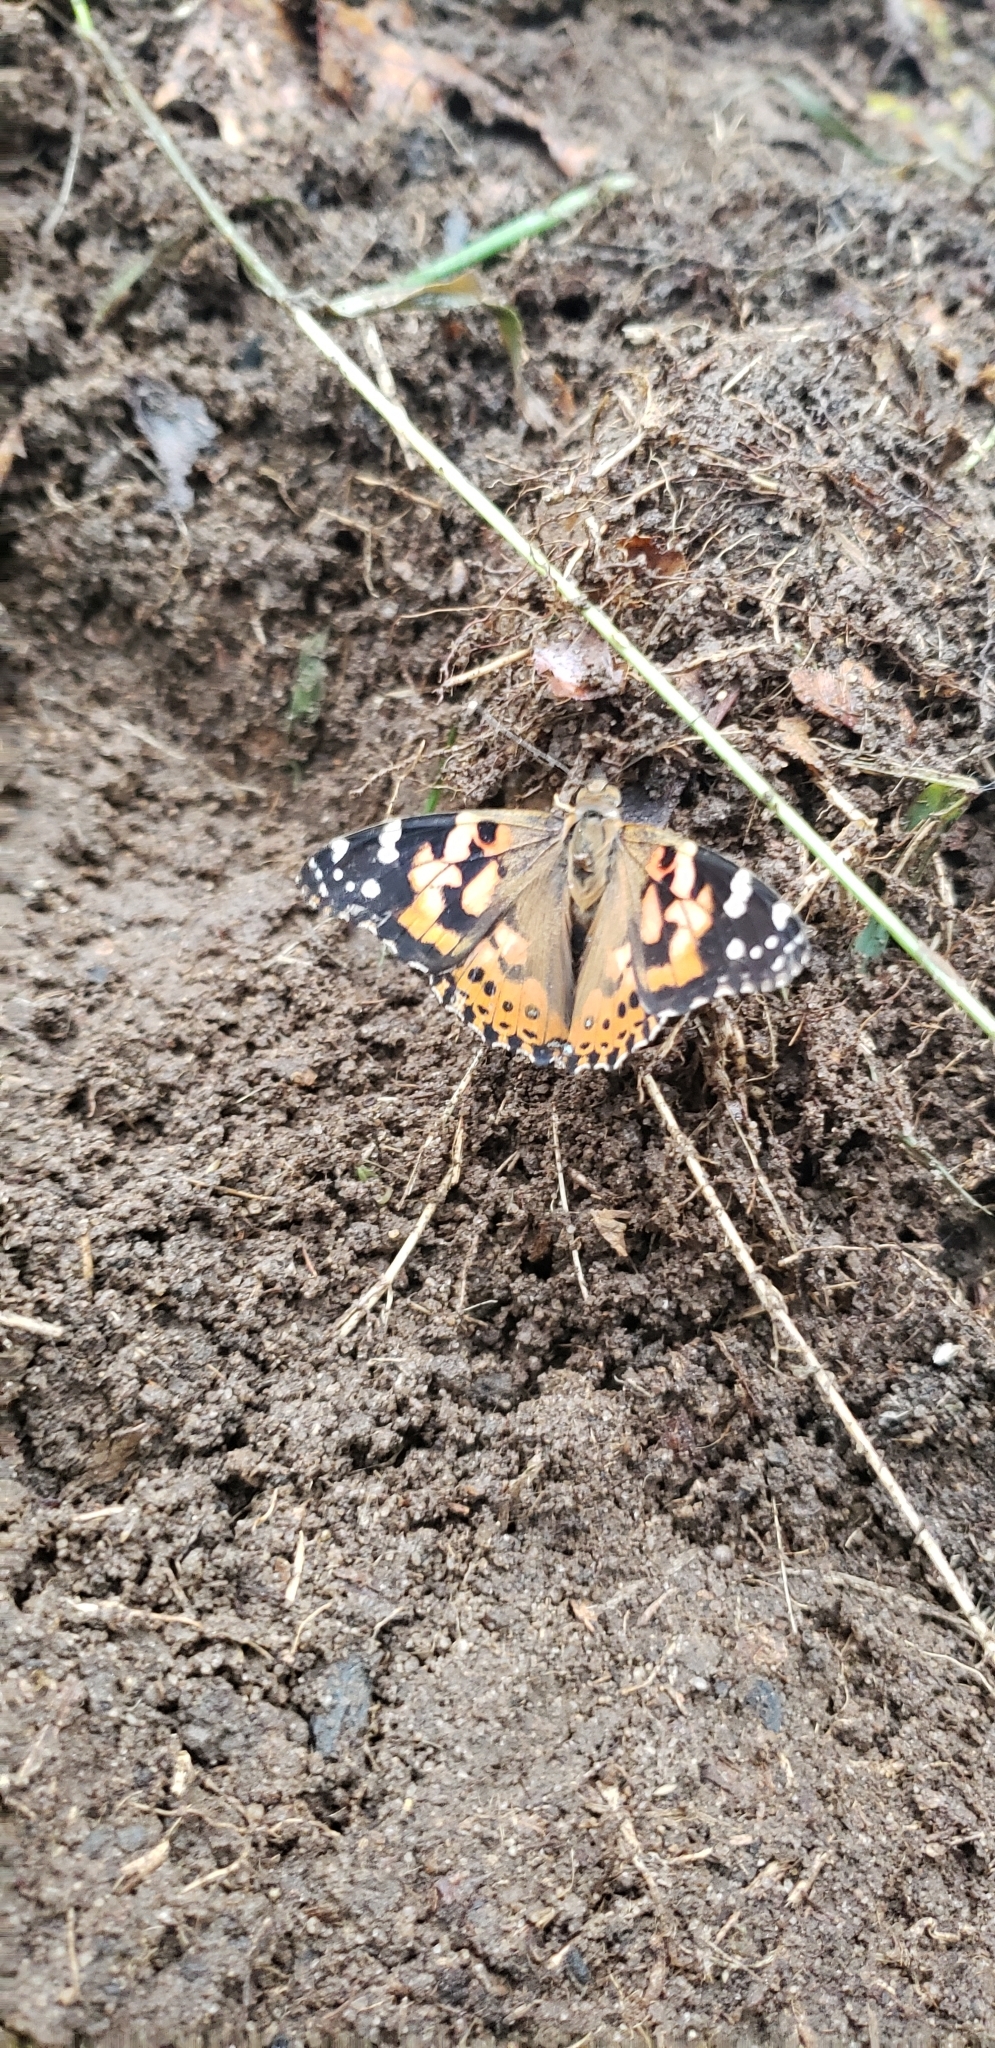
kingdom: Animalia
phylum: Arthropoda
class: Insecta
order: Lepidoptera
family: Nymphalidae
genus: Vanessa
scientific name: Vanessa cardui
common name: Painted lady
